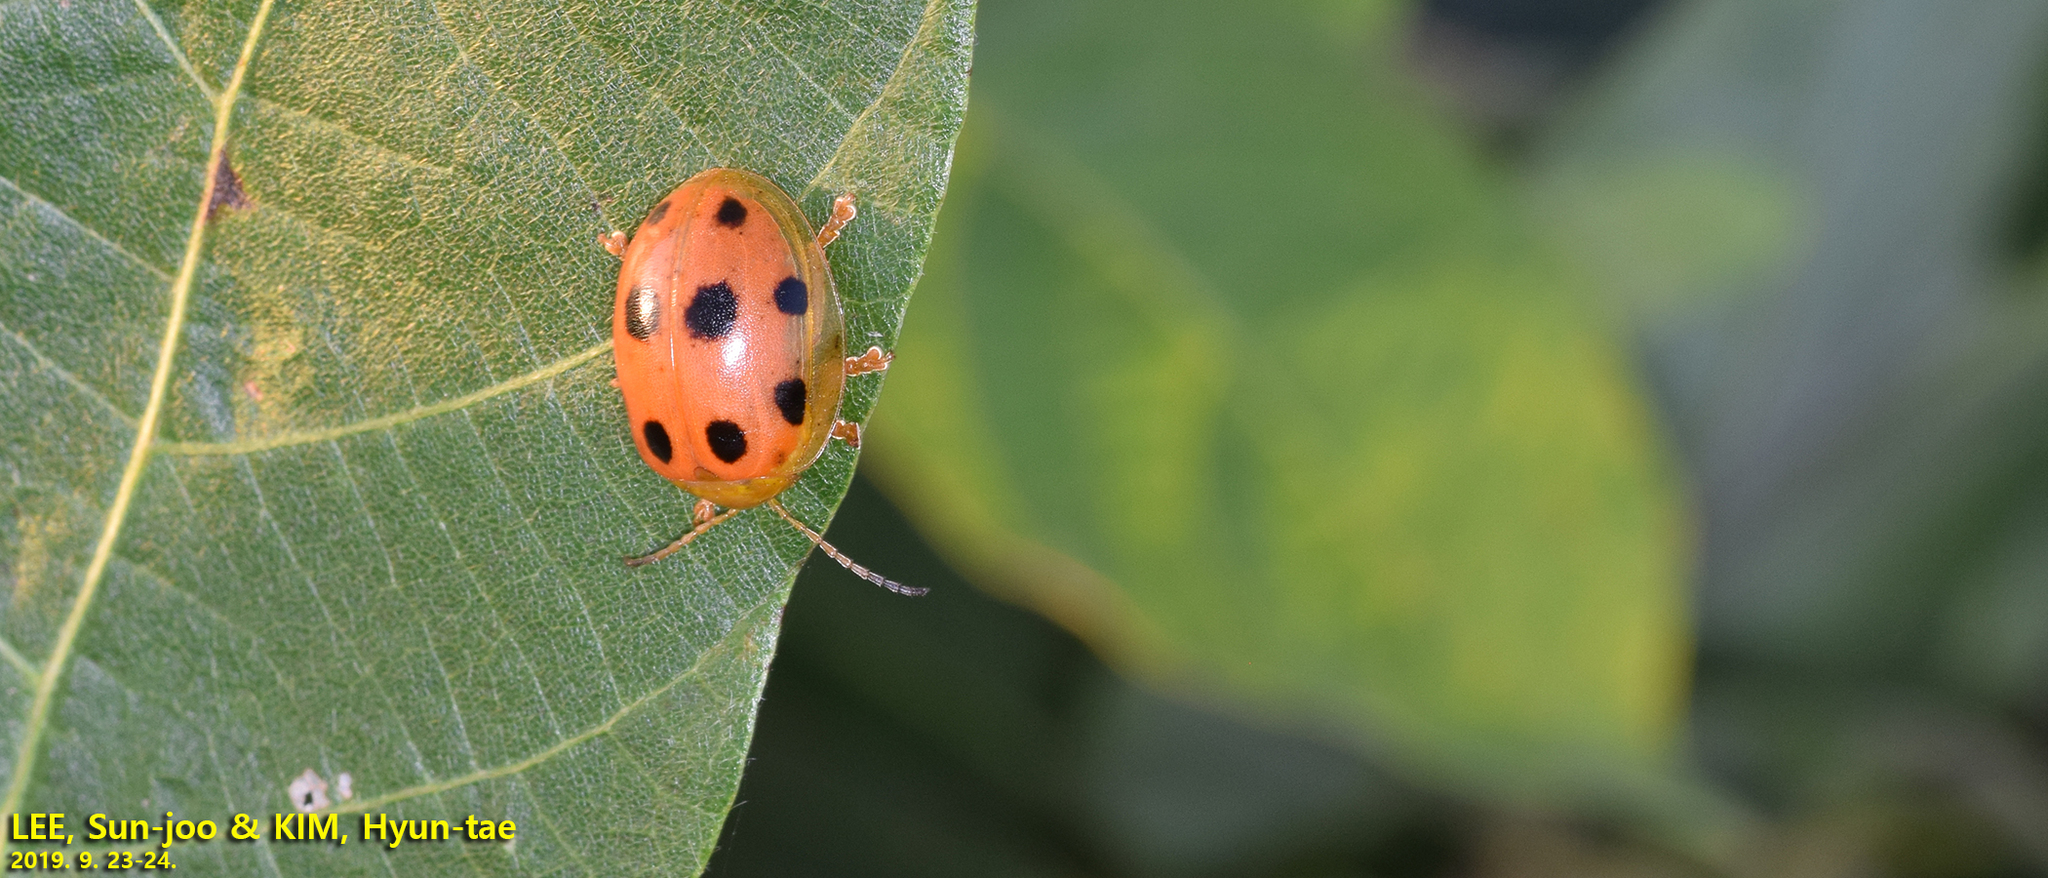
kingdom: Animalia
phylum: Arthropoda
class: Insecta
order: Coleoptera
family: Chrysomelidae
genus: Oides
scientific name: Oides decempunctata
